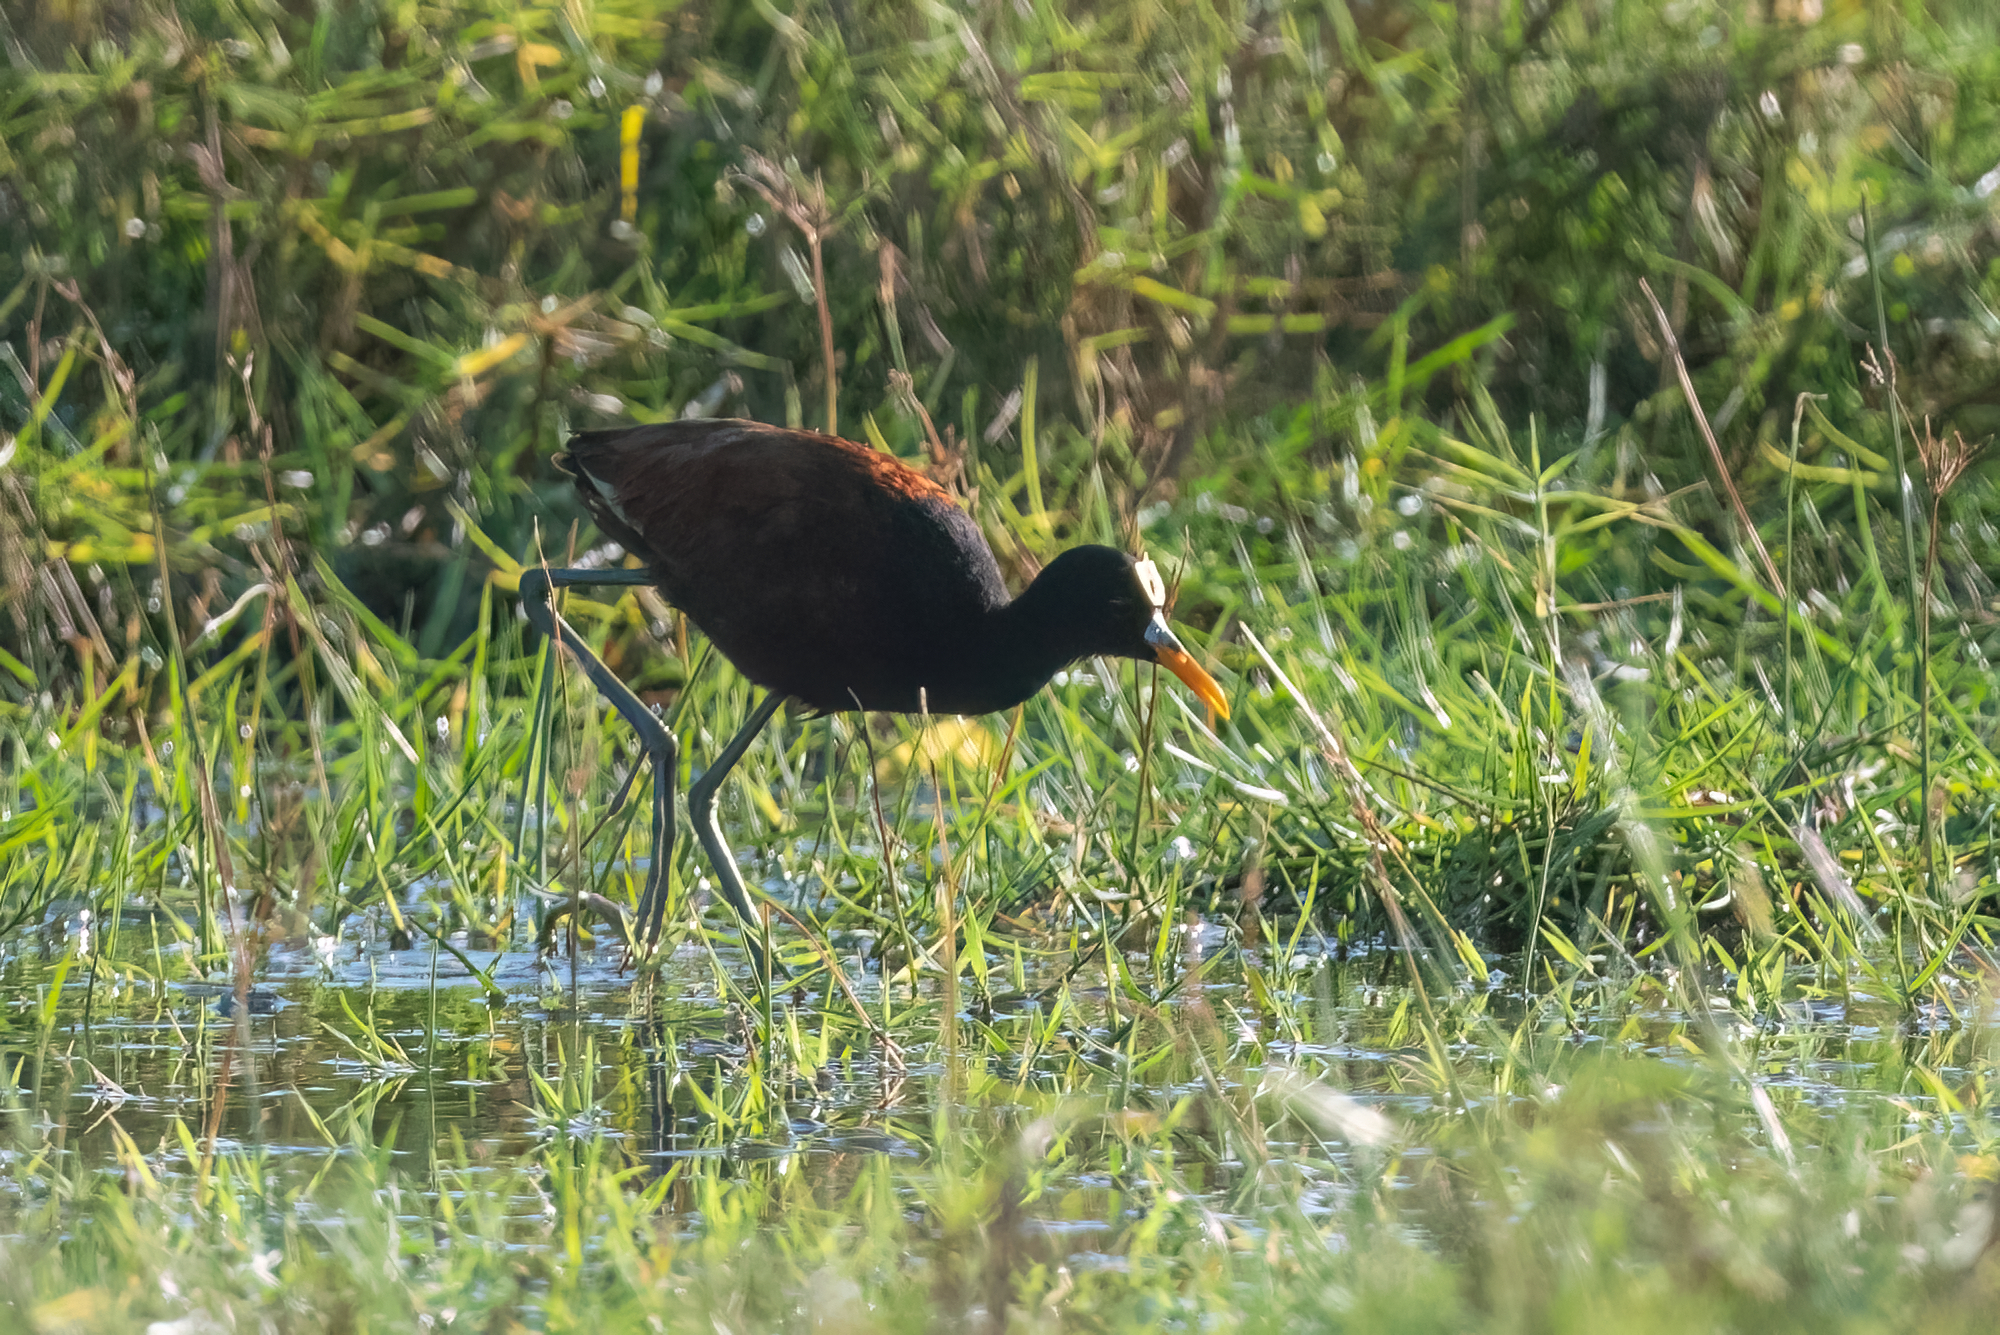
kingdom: Animalia
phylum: Chordata
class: Aves
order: Charadriiformes
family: Jacanidae
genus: Jacana
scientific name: Jacana spinosa
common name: Northern jacana
